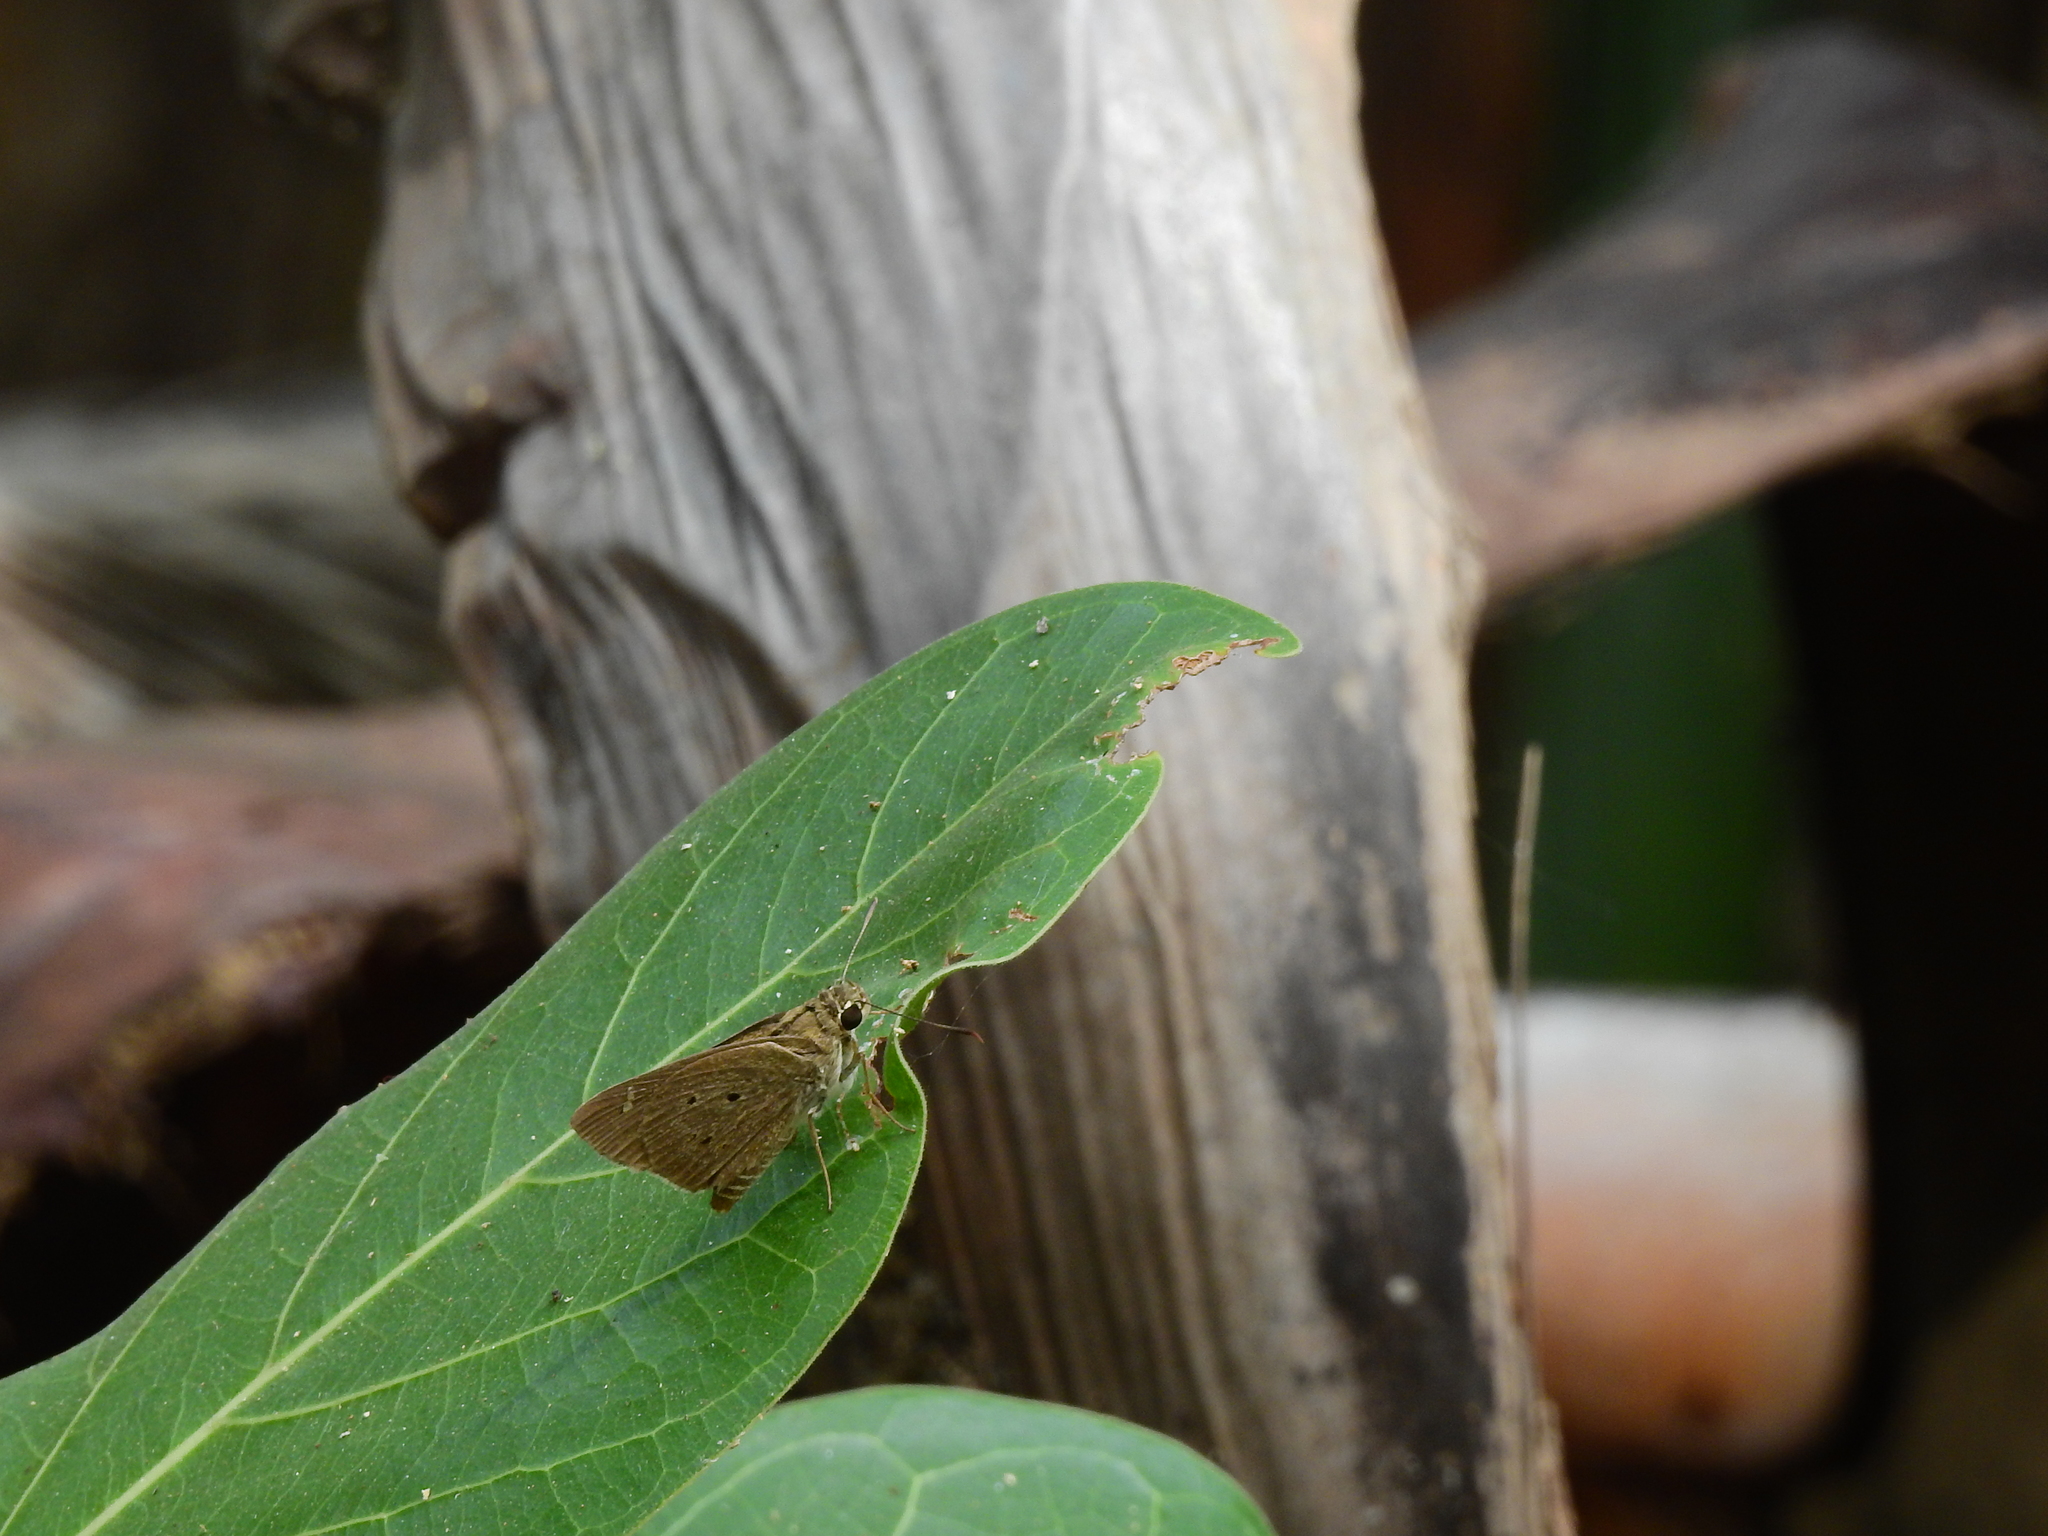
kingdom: Animalia
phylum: Arthropoda
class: Insecta
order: Lepidoptera
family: Hesperiidae
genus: Suastus
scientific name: Suastus gremius
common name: Indian palm bob
